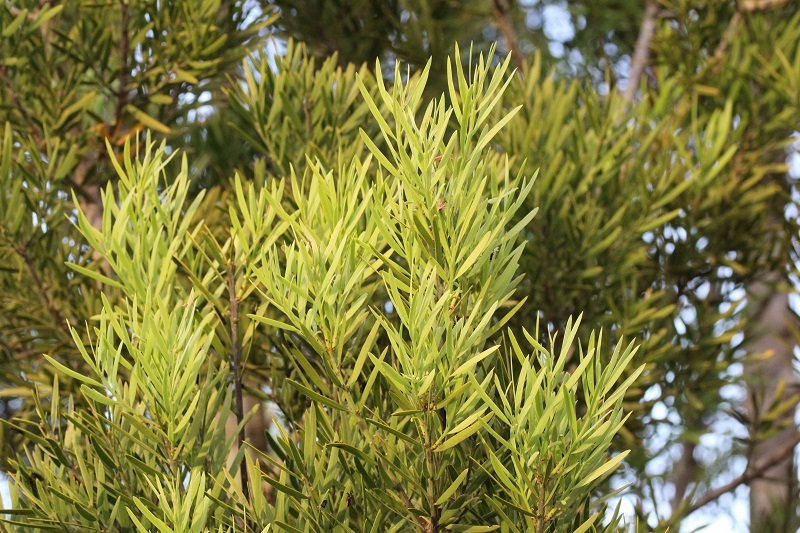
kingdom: Plantae
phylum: Tracheophyta
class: Pinopsida
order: Pinales
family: Podocarpaceae
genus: Afrocarpus
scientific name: Afrocarpus falcatus
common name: Bastard yellowwood
